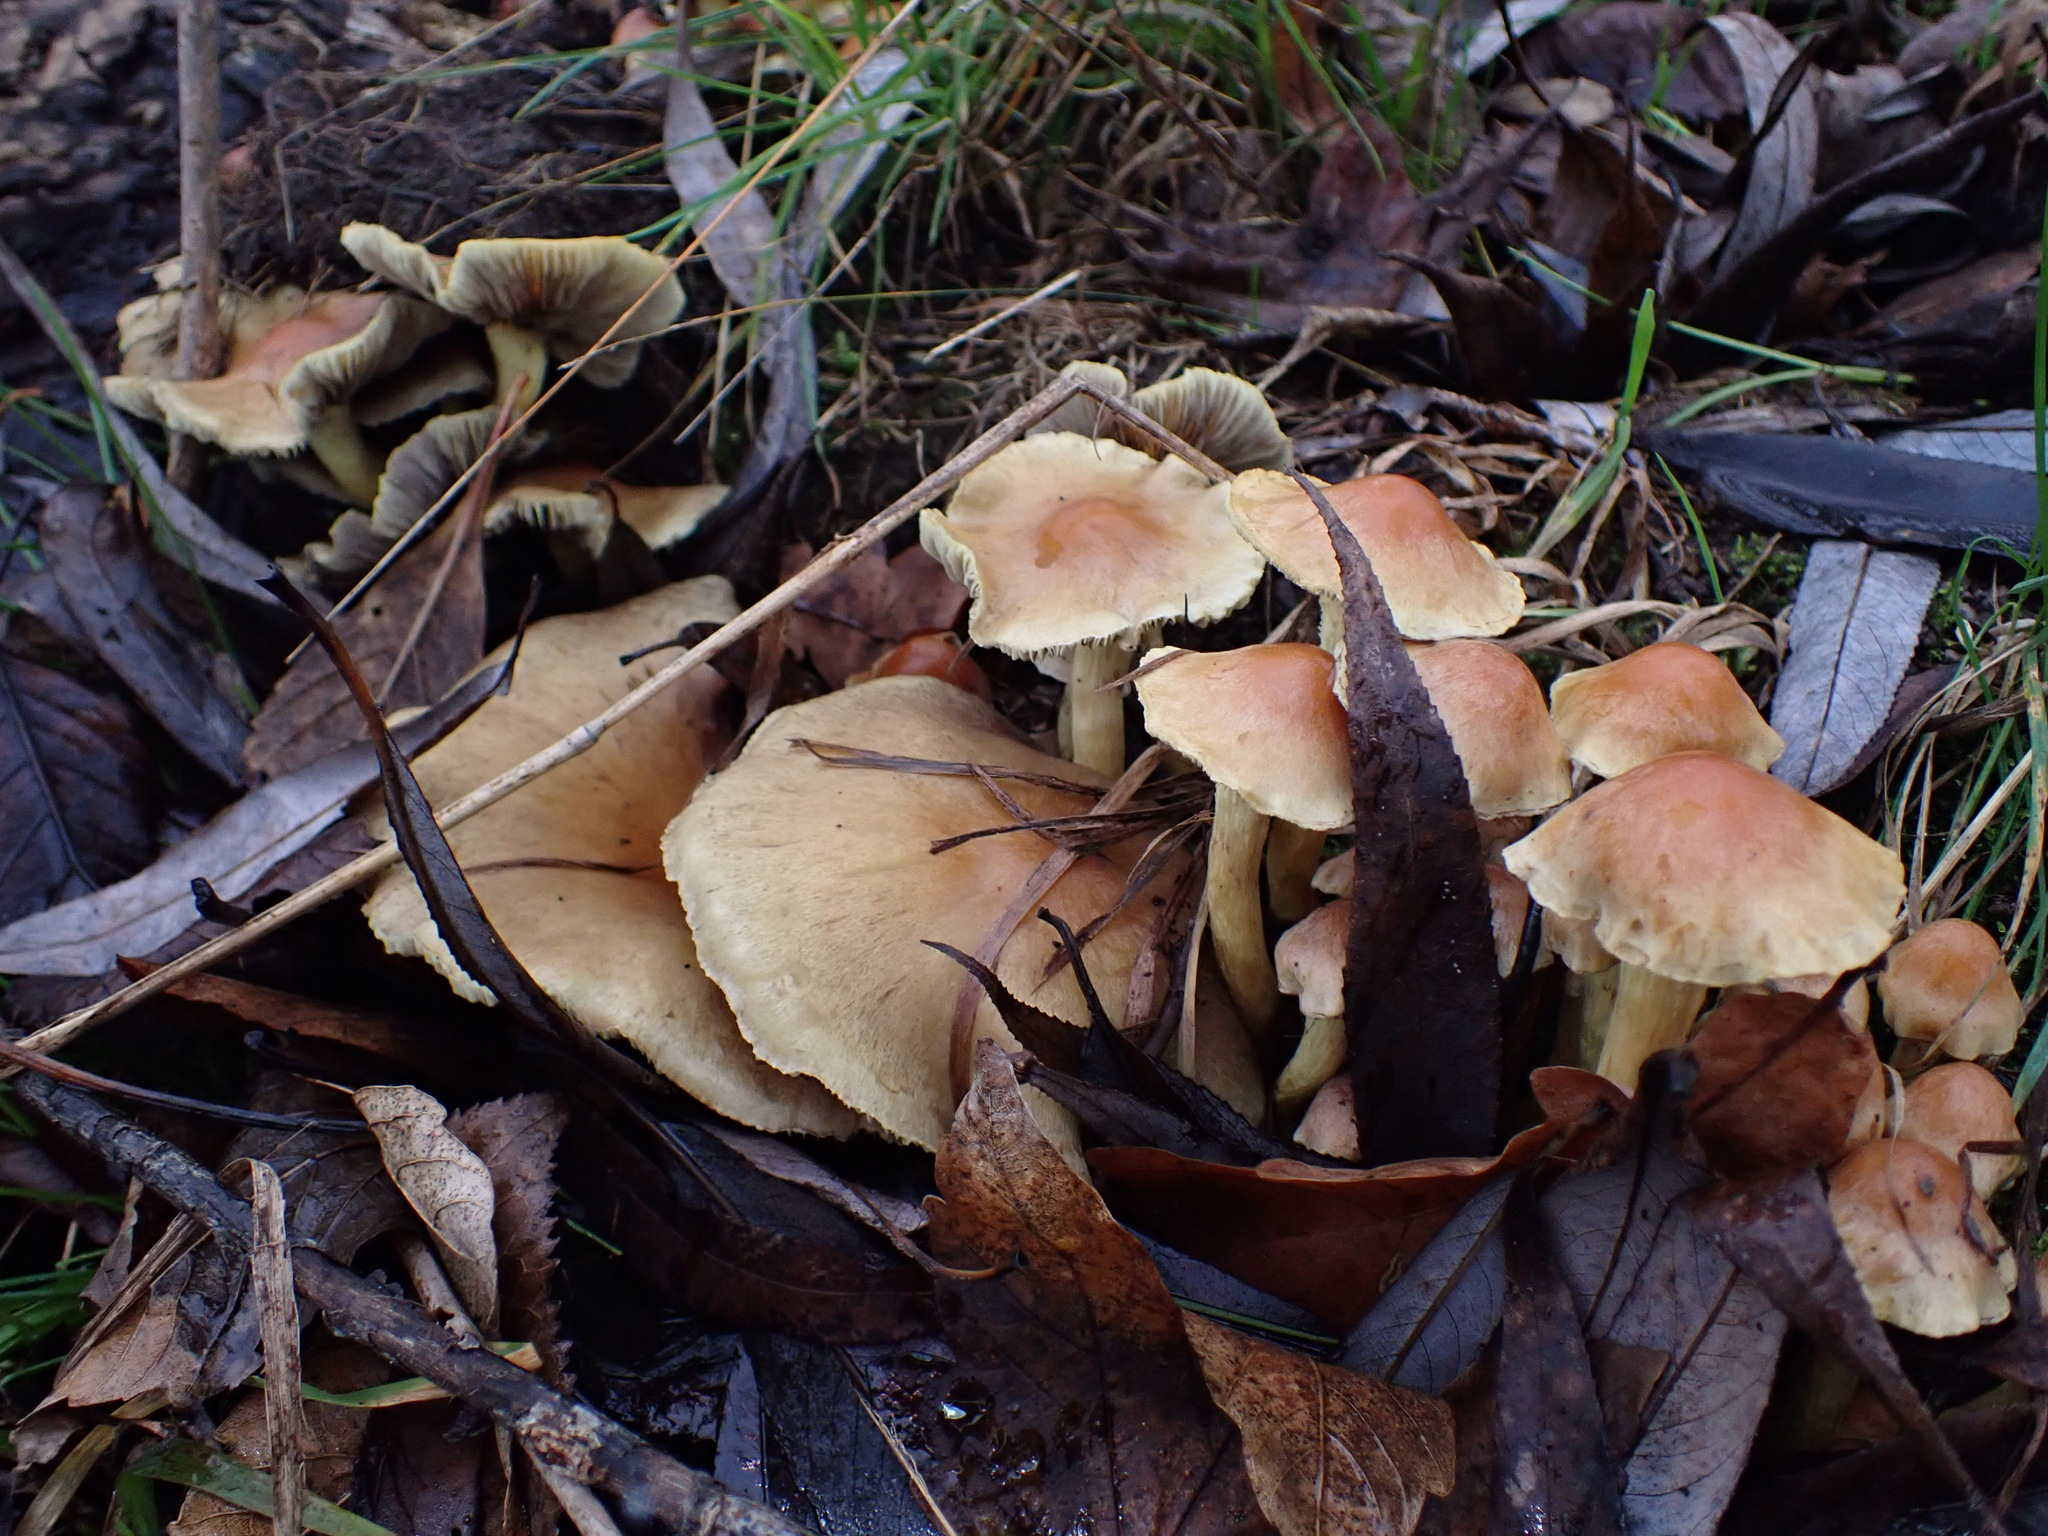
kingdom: Fungi
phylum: Basidiomycota
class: Agaricomycetes
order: Agaricales
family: Strophariaceae
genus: Hypholoma
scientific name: Hypholoma fasciculare
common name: Sulphur tuft
